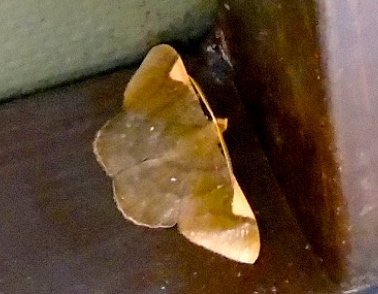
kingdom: Animalia
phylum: Arthropoda
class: Insecta
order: Lepidoptera
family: Geometridae
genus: Sphacelodes
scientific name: Sphacelodes vulneraria
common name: Looper moth
